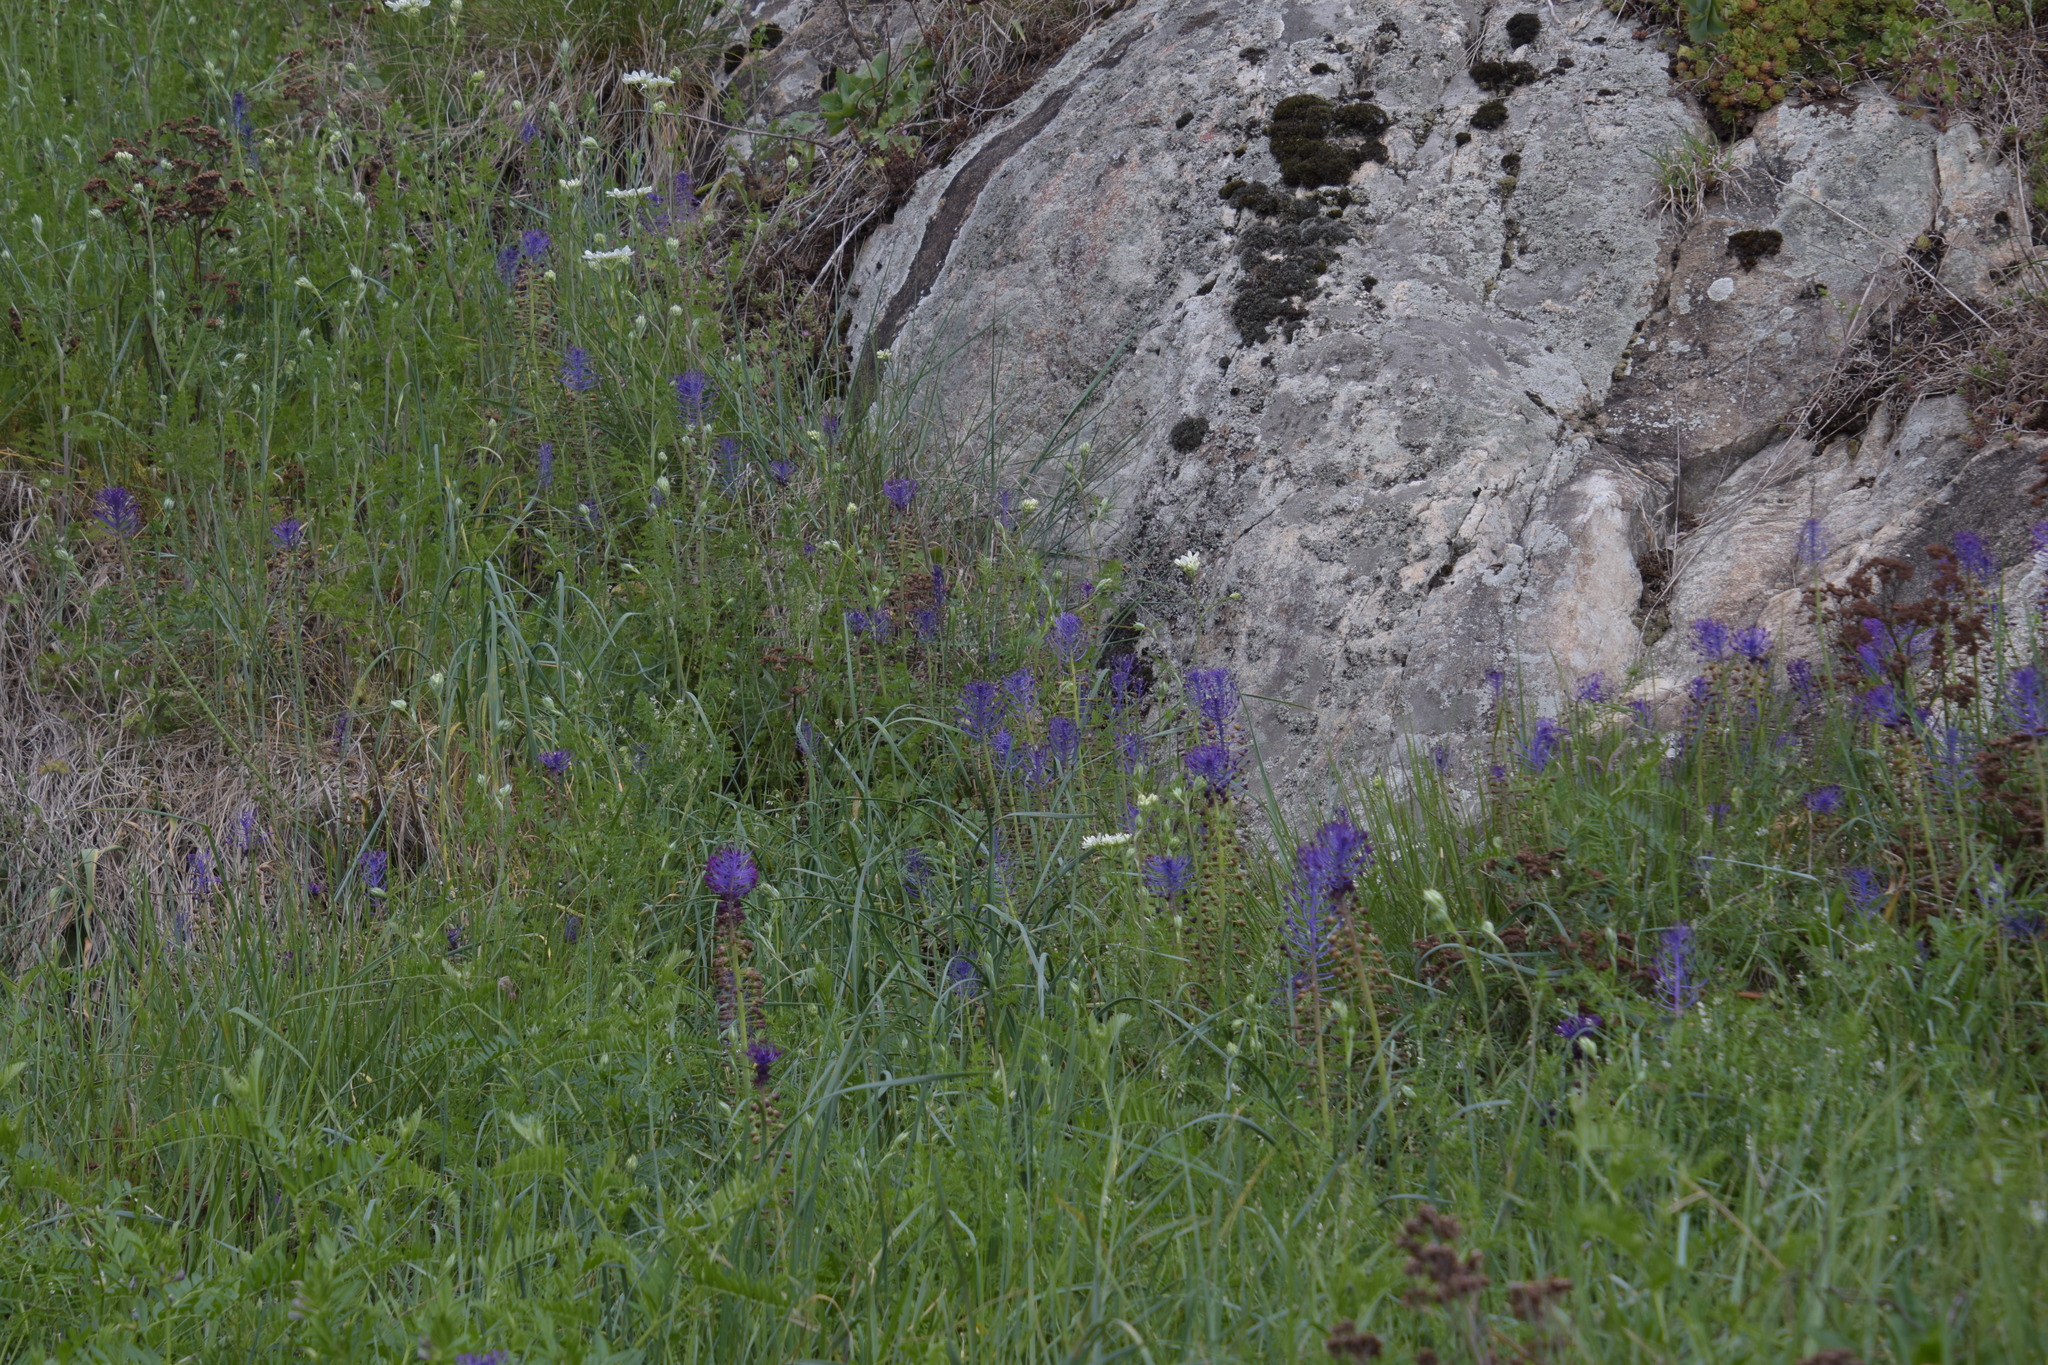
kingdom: Plantae
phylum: Tracheophyta
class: Liliopsida
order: Asparagales
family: Asparagaceae
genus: Muscari
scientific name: Muscari comosum
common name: Tassel hyacinth
